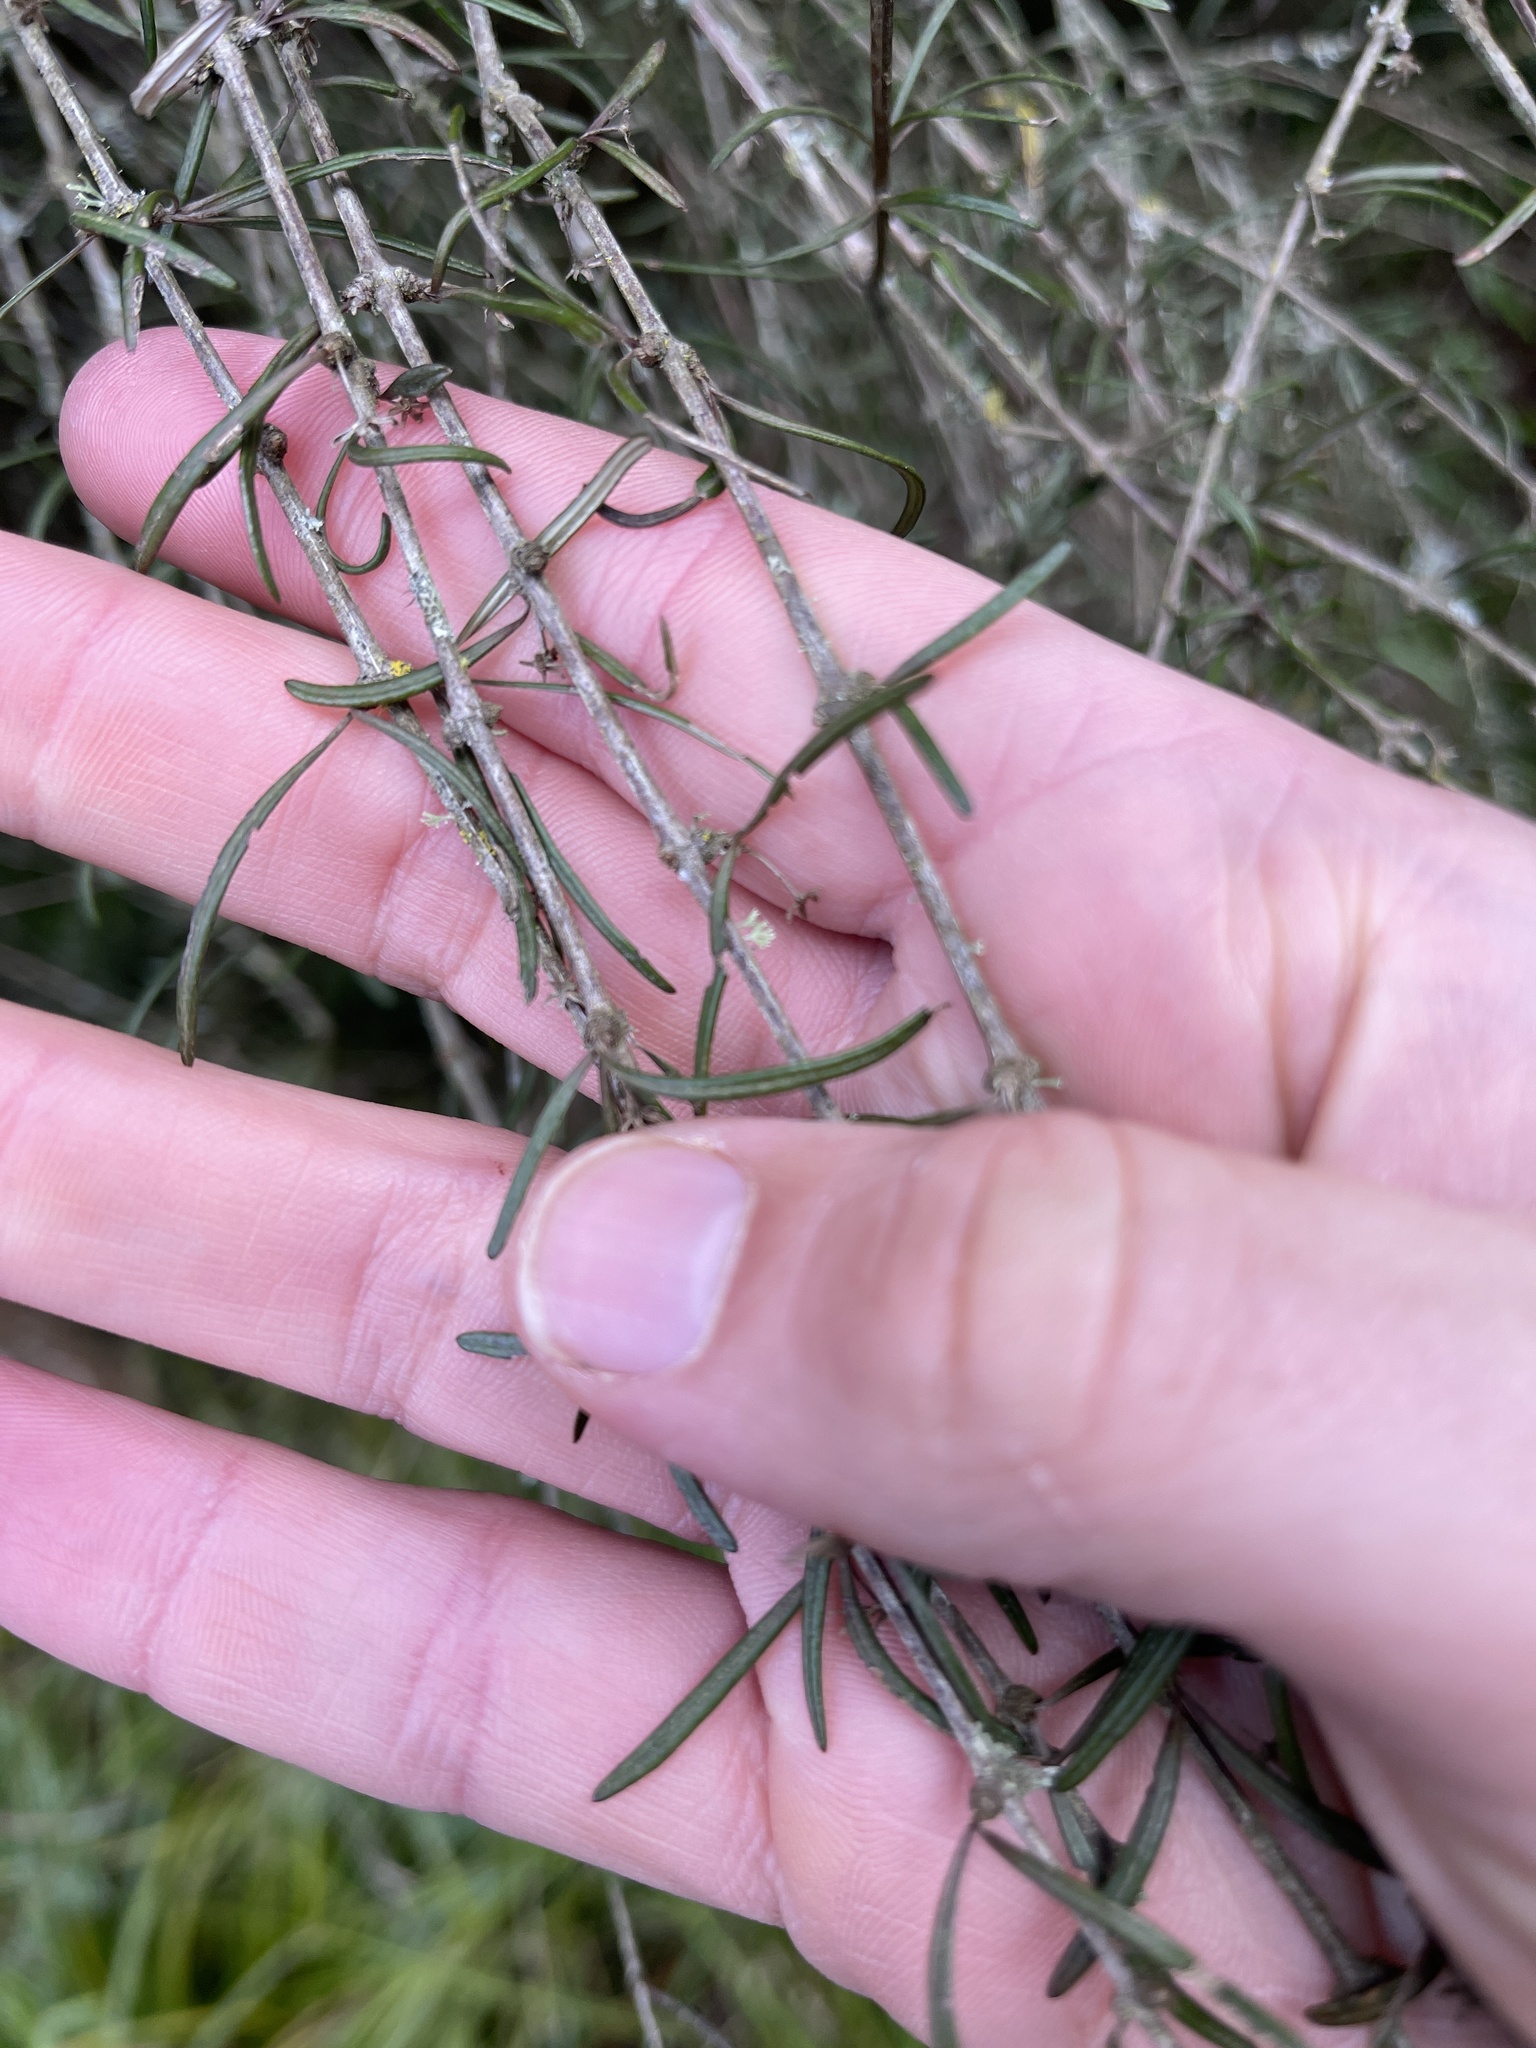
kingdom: Plantae
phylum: Tracheophyta
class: Magnoliopsida
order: Asterales
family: Asteraceae
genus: Olearia
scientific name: Olearia lineata
